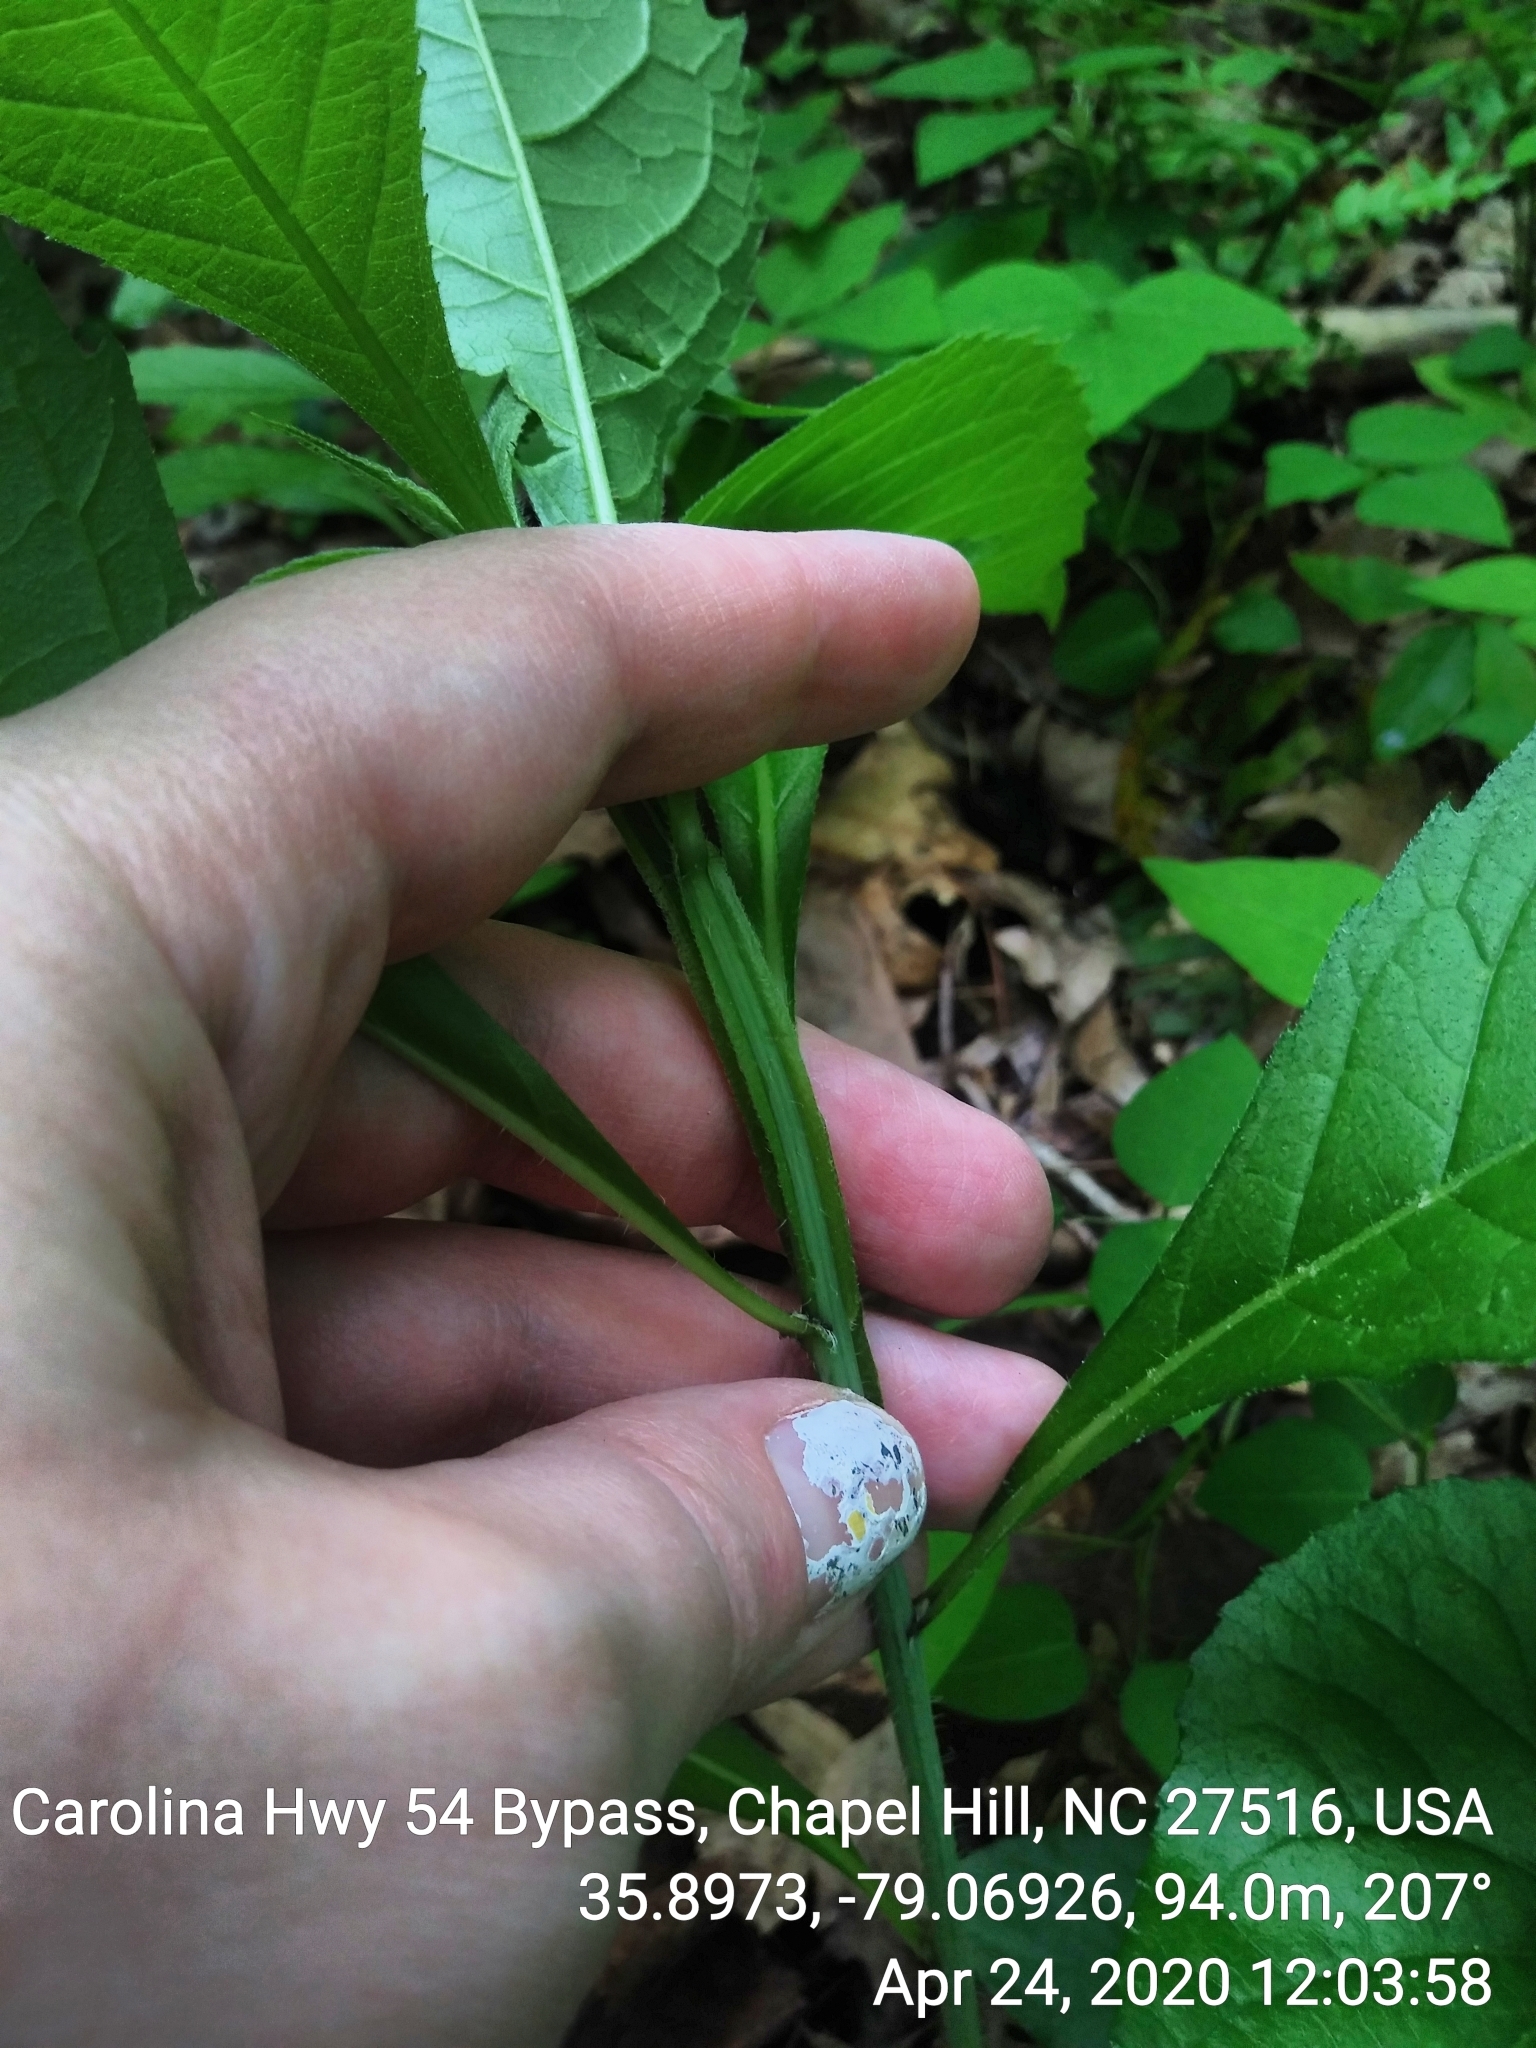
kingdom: Plantae
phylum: Tracheophyta
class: Magnoliopsida
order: Asterales
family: Asteraceae
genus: Verbesina
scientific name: Verbesina alternifolia
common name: Wingstem
